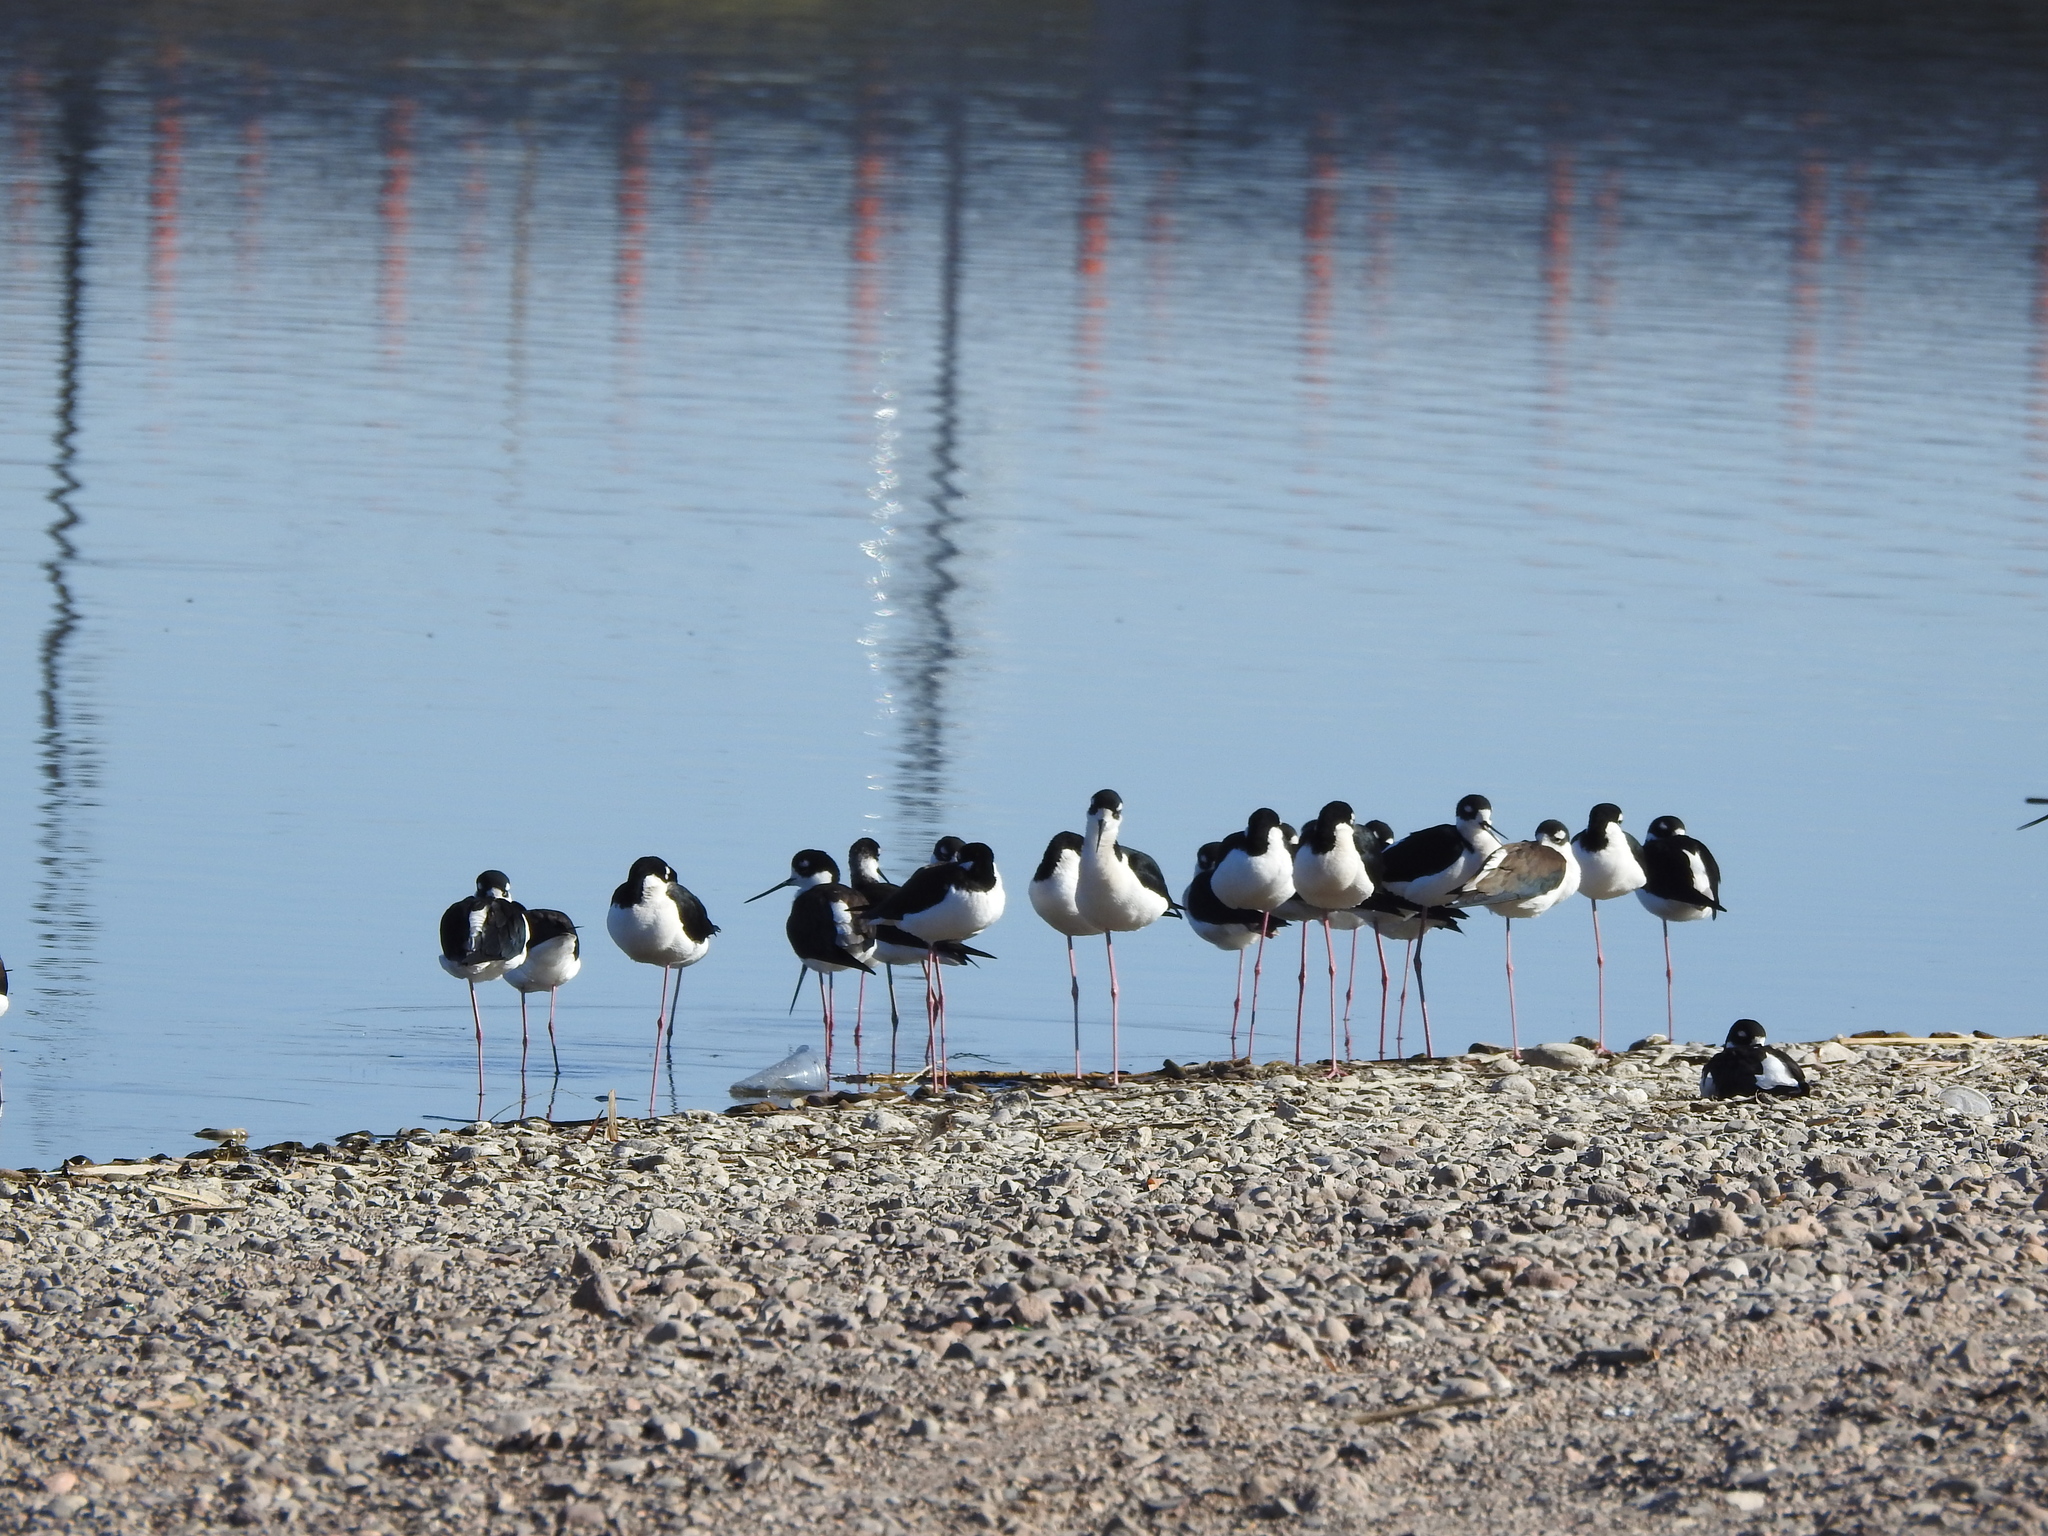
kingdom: Animalia
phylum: Chordata
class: Aves
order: Charadriiformes
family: Recurvirostridae
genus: Himantopus
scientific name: Himantopus mexicanus
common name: Black-necked stilt
